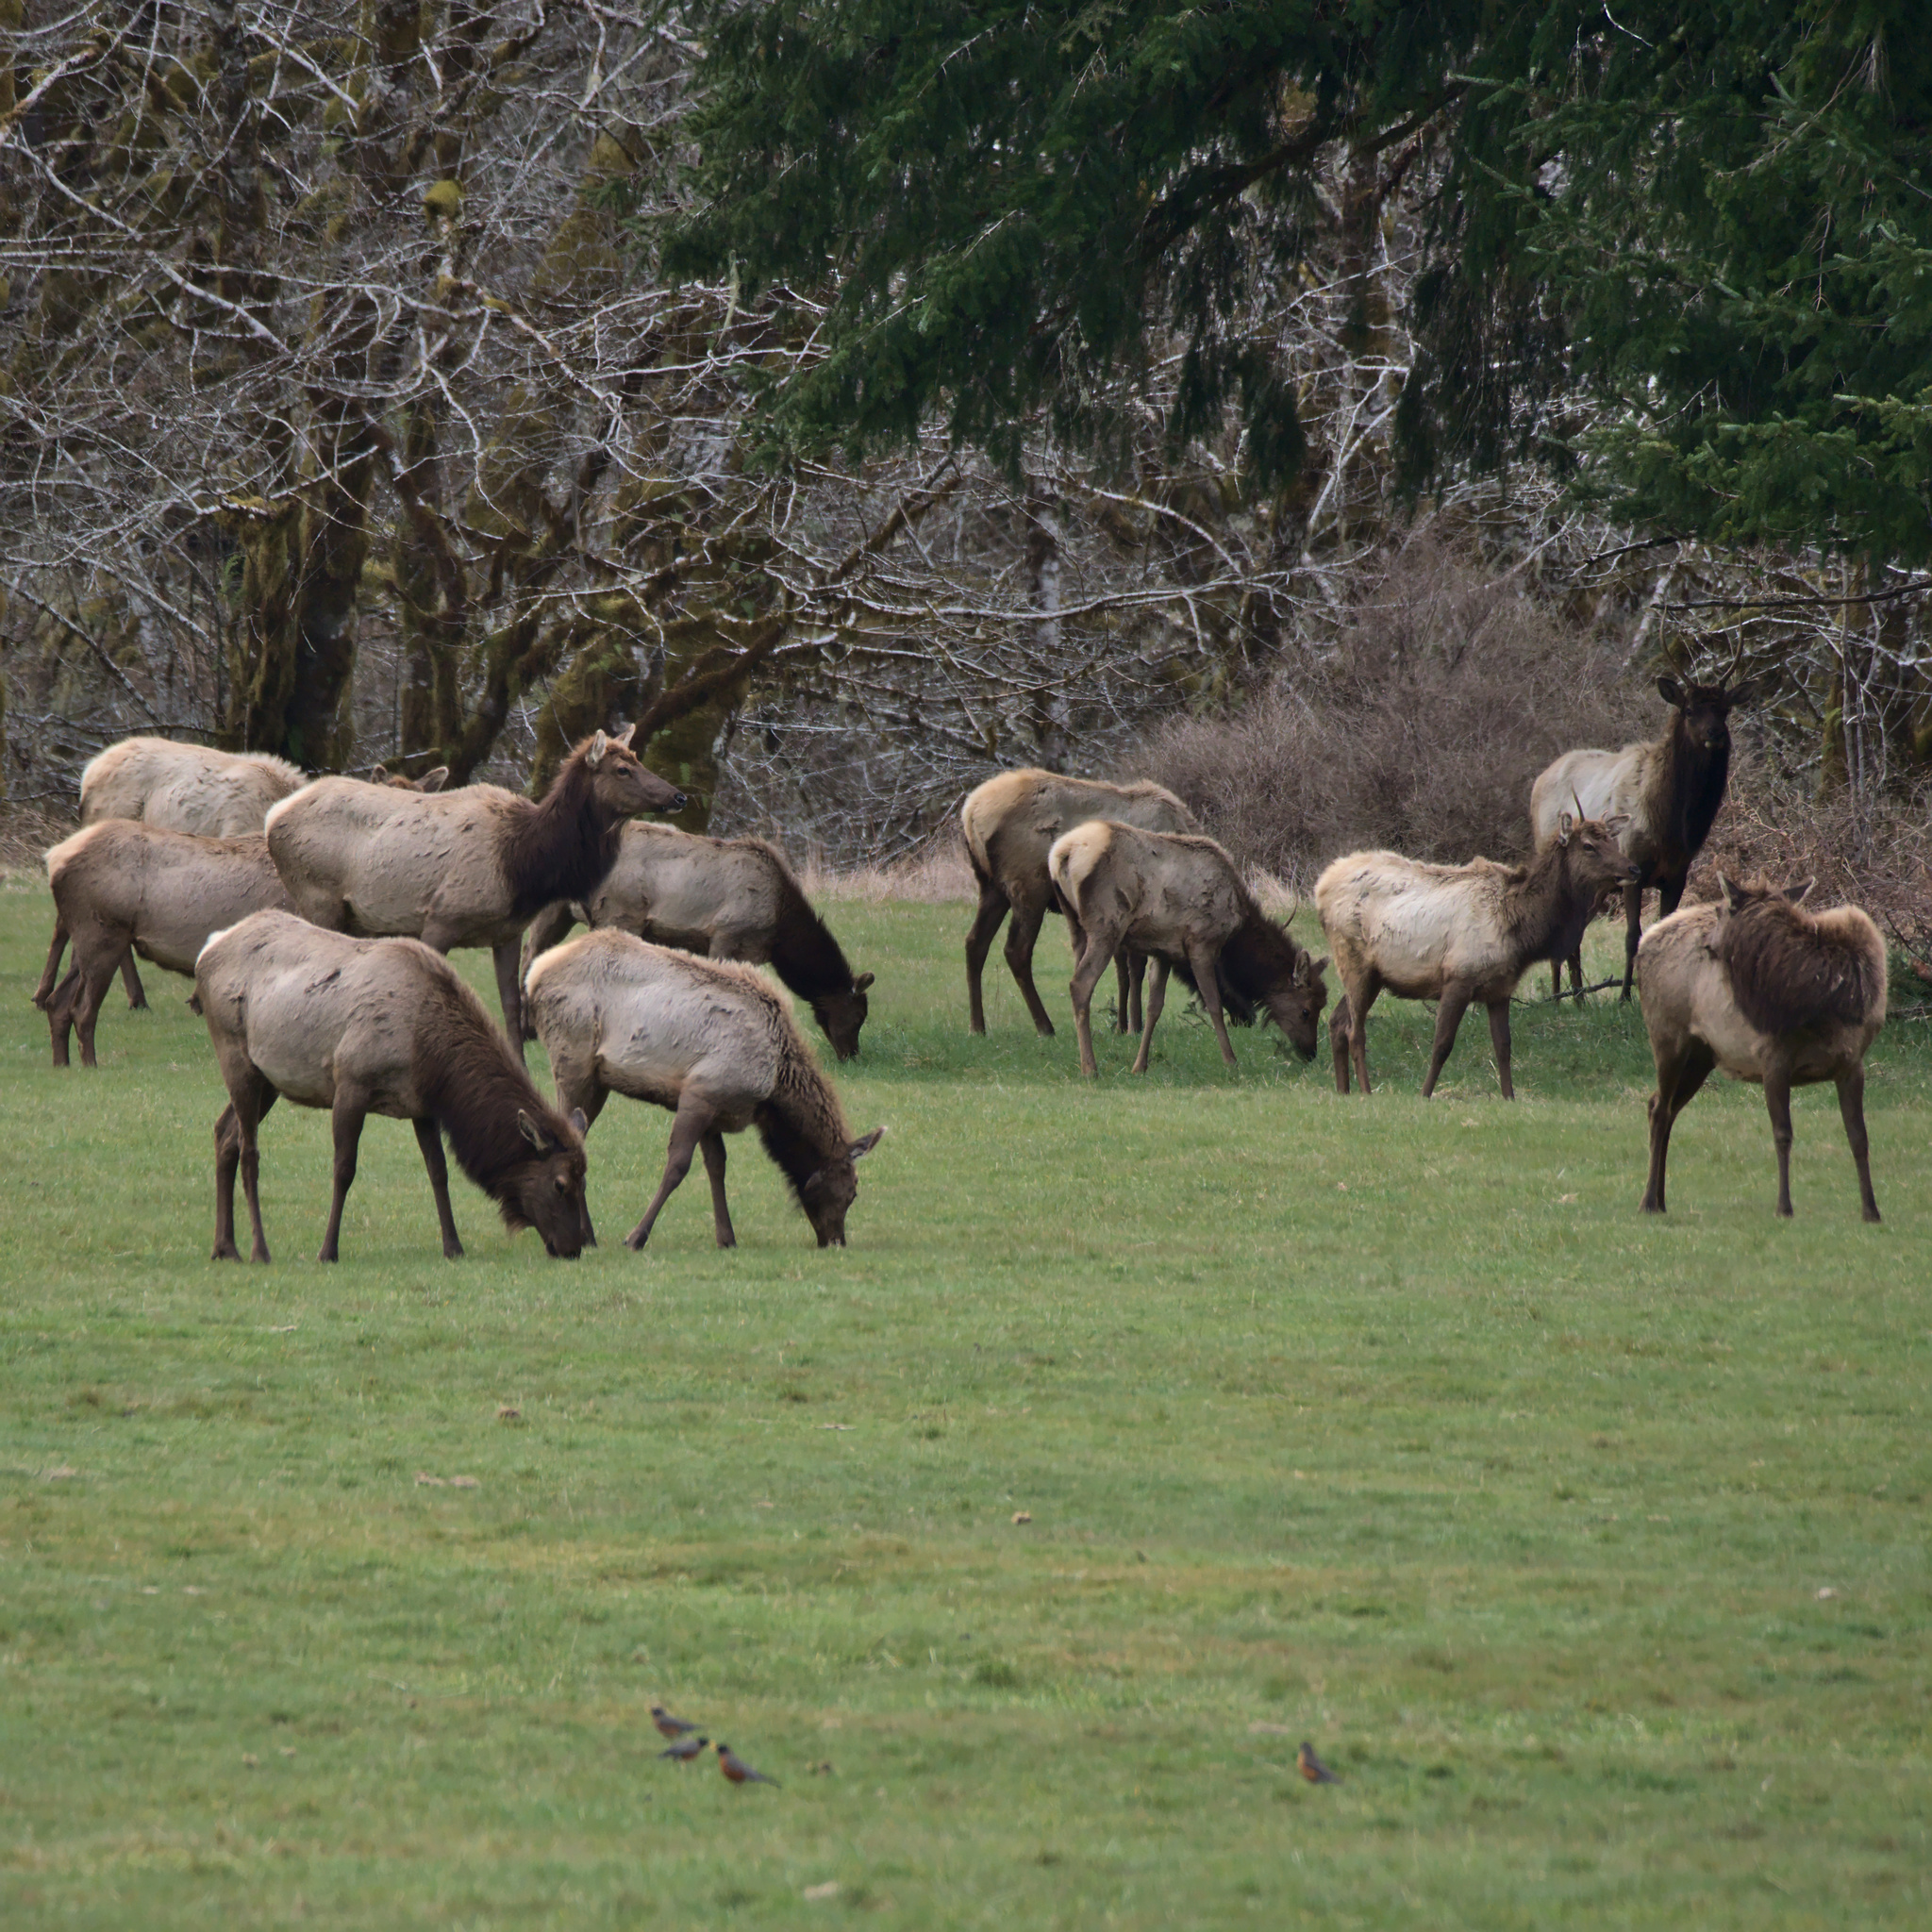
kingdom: Animalia
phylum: Chordata
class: Mammalia
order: Artiodactyla
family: Cervidae
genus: Cervus
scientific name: Cervus elaphus
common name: Red deer
